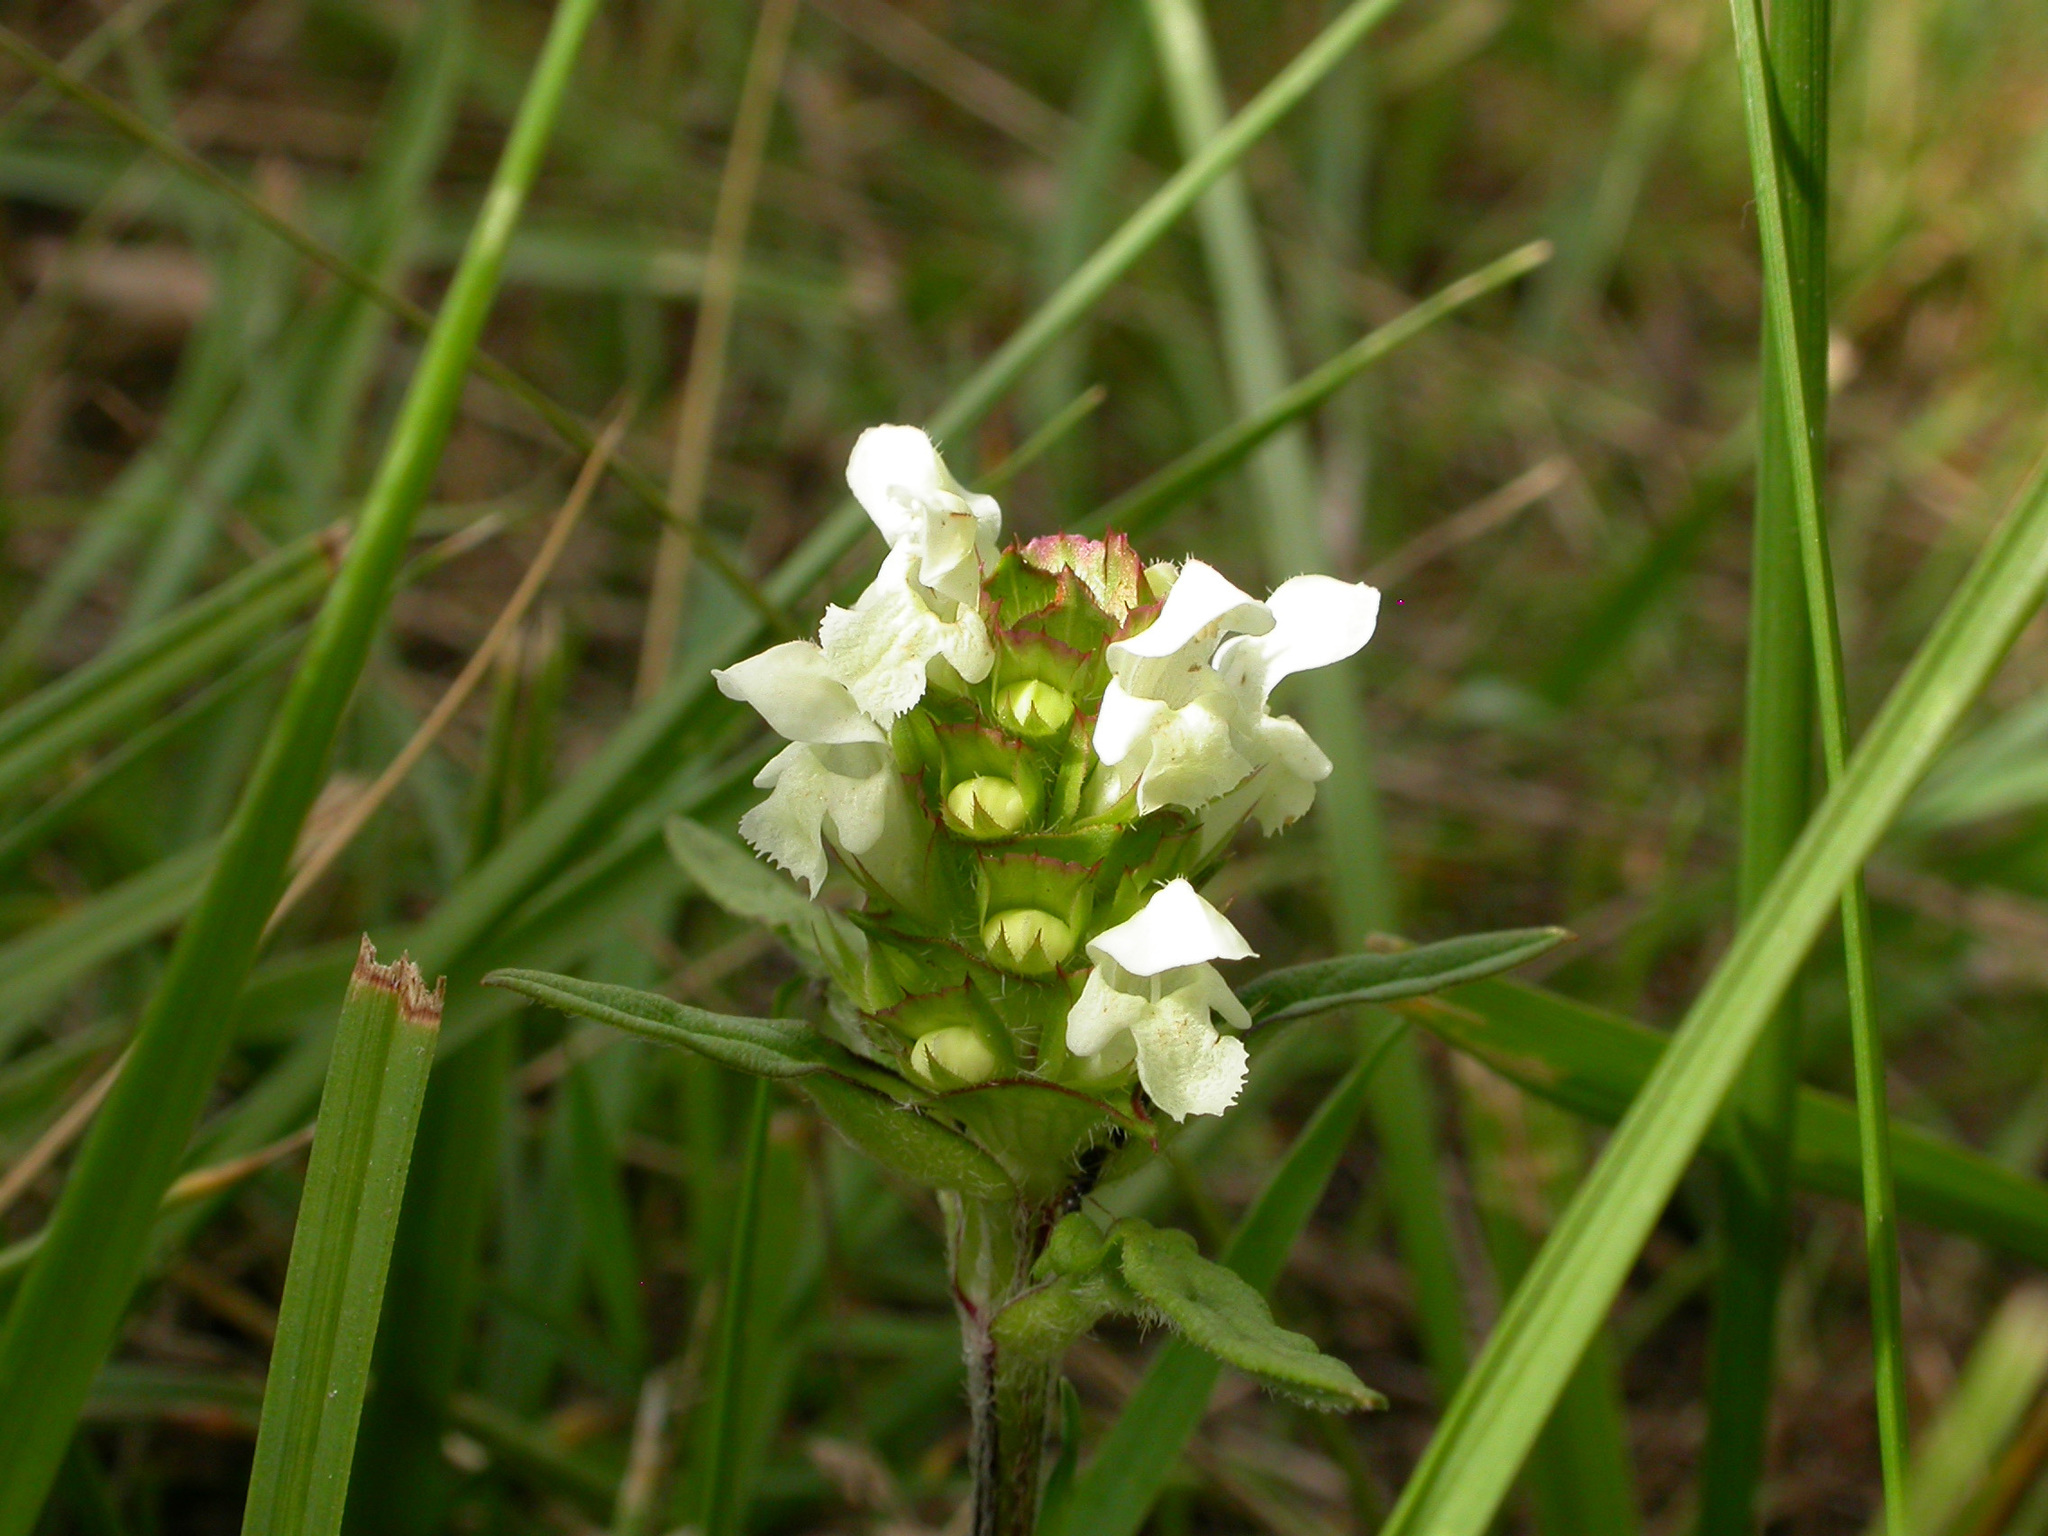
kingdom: Plantae
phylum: Tracheophyta
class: Magnoliopsida
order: Lamiales
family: Lamiaceae
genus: Prunella
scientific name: Prunella laciniata
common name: Cut-leaved selfheal
